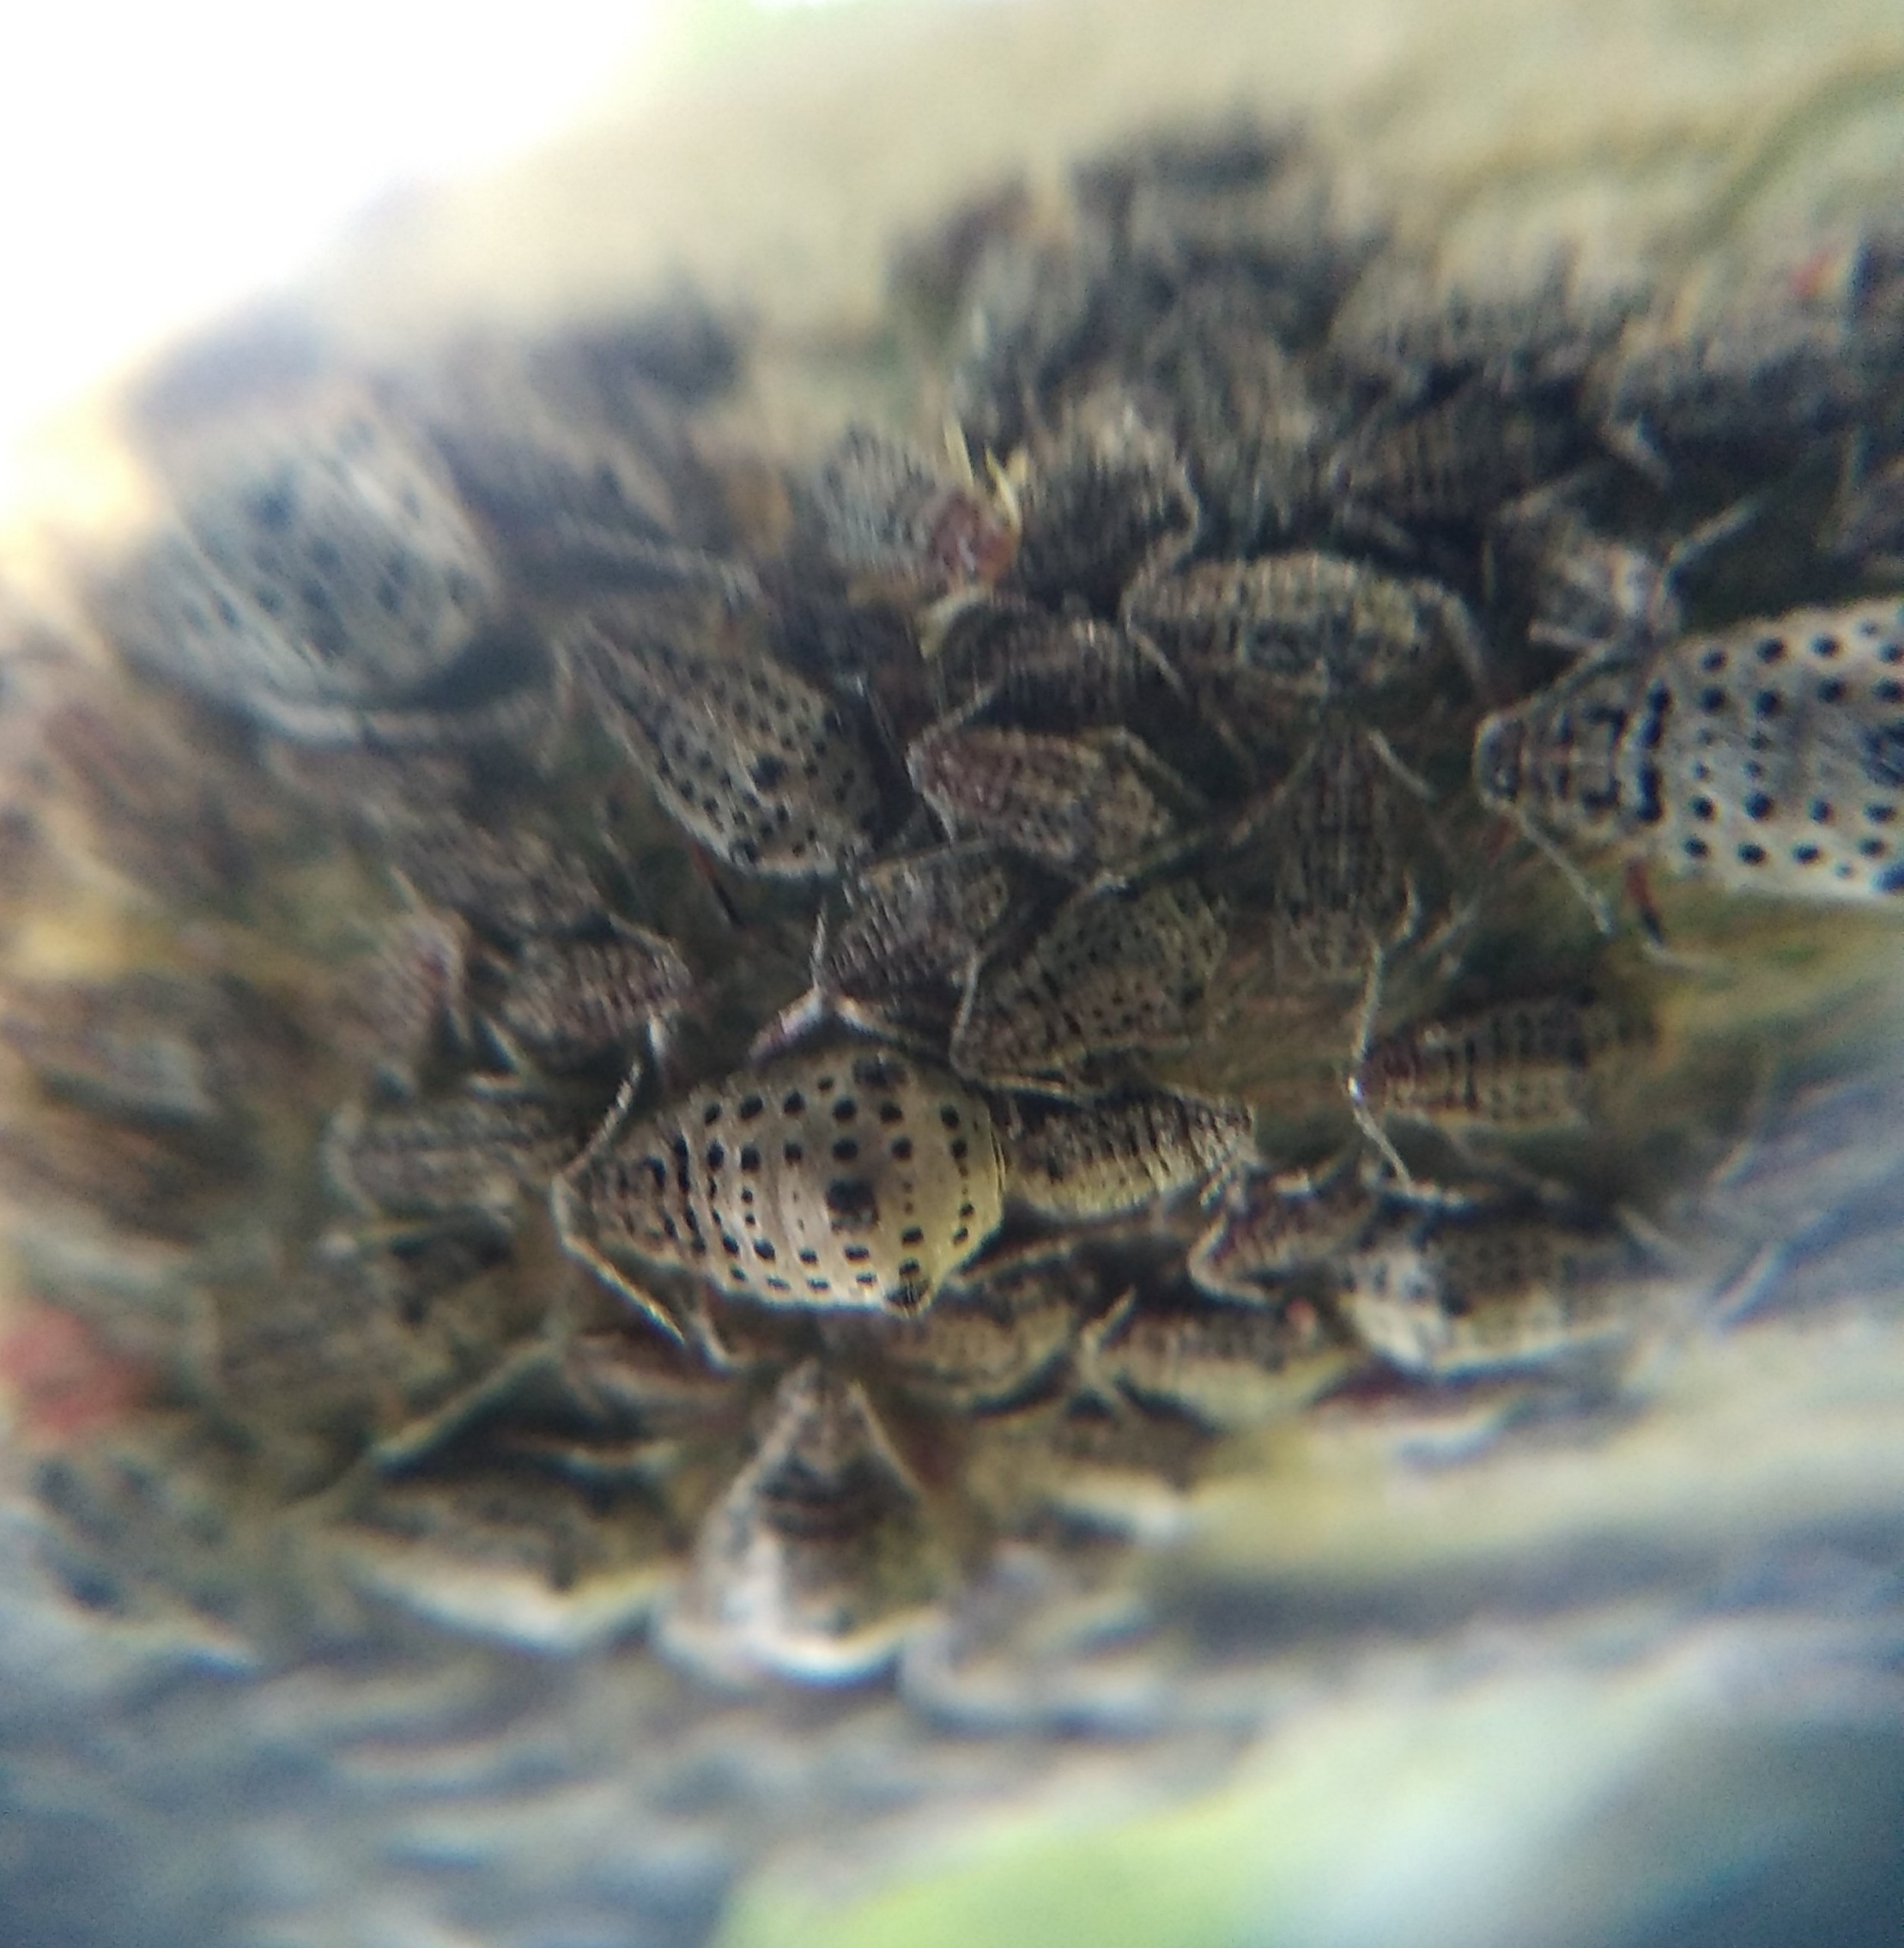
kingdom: Animalia
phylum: Arthropoda
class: Insecta
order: Hemiptera
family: Aphididae
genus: Tuberolachnus
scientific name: Tuberolachnus salignus
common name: Giant willow aphid
